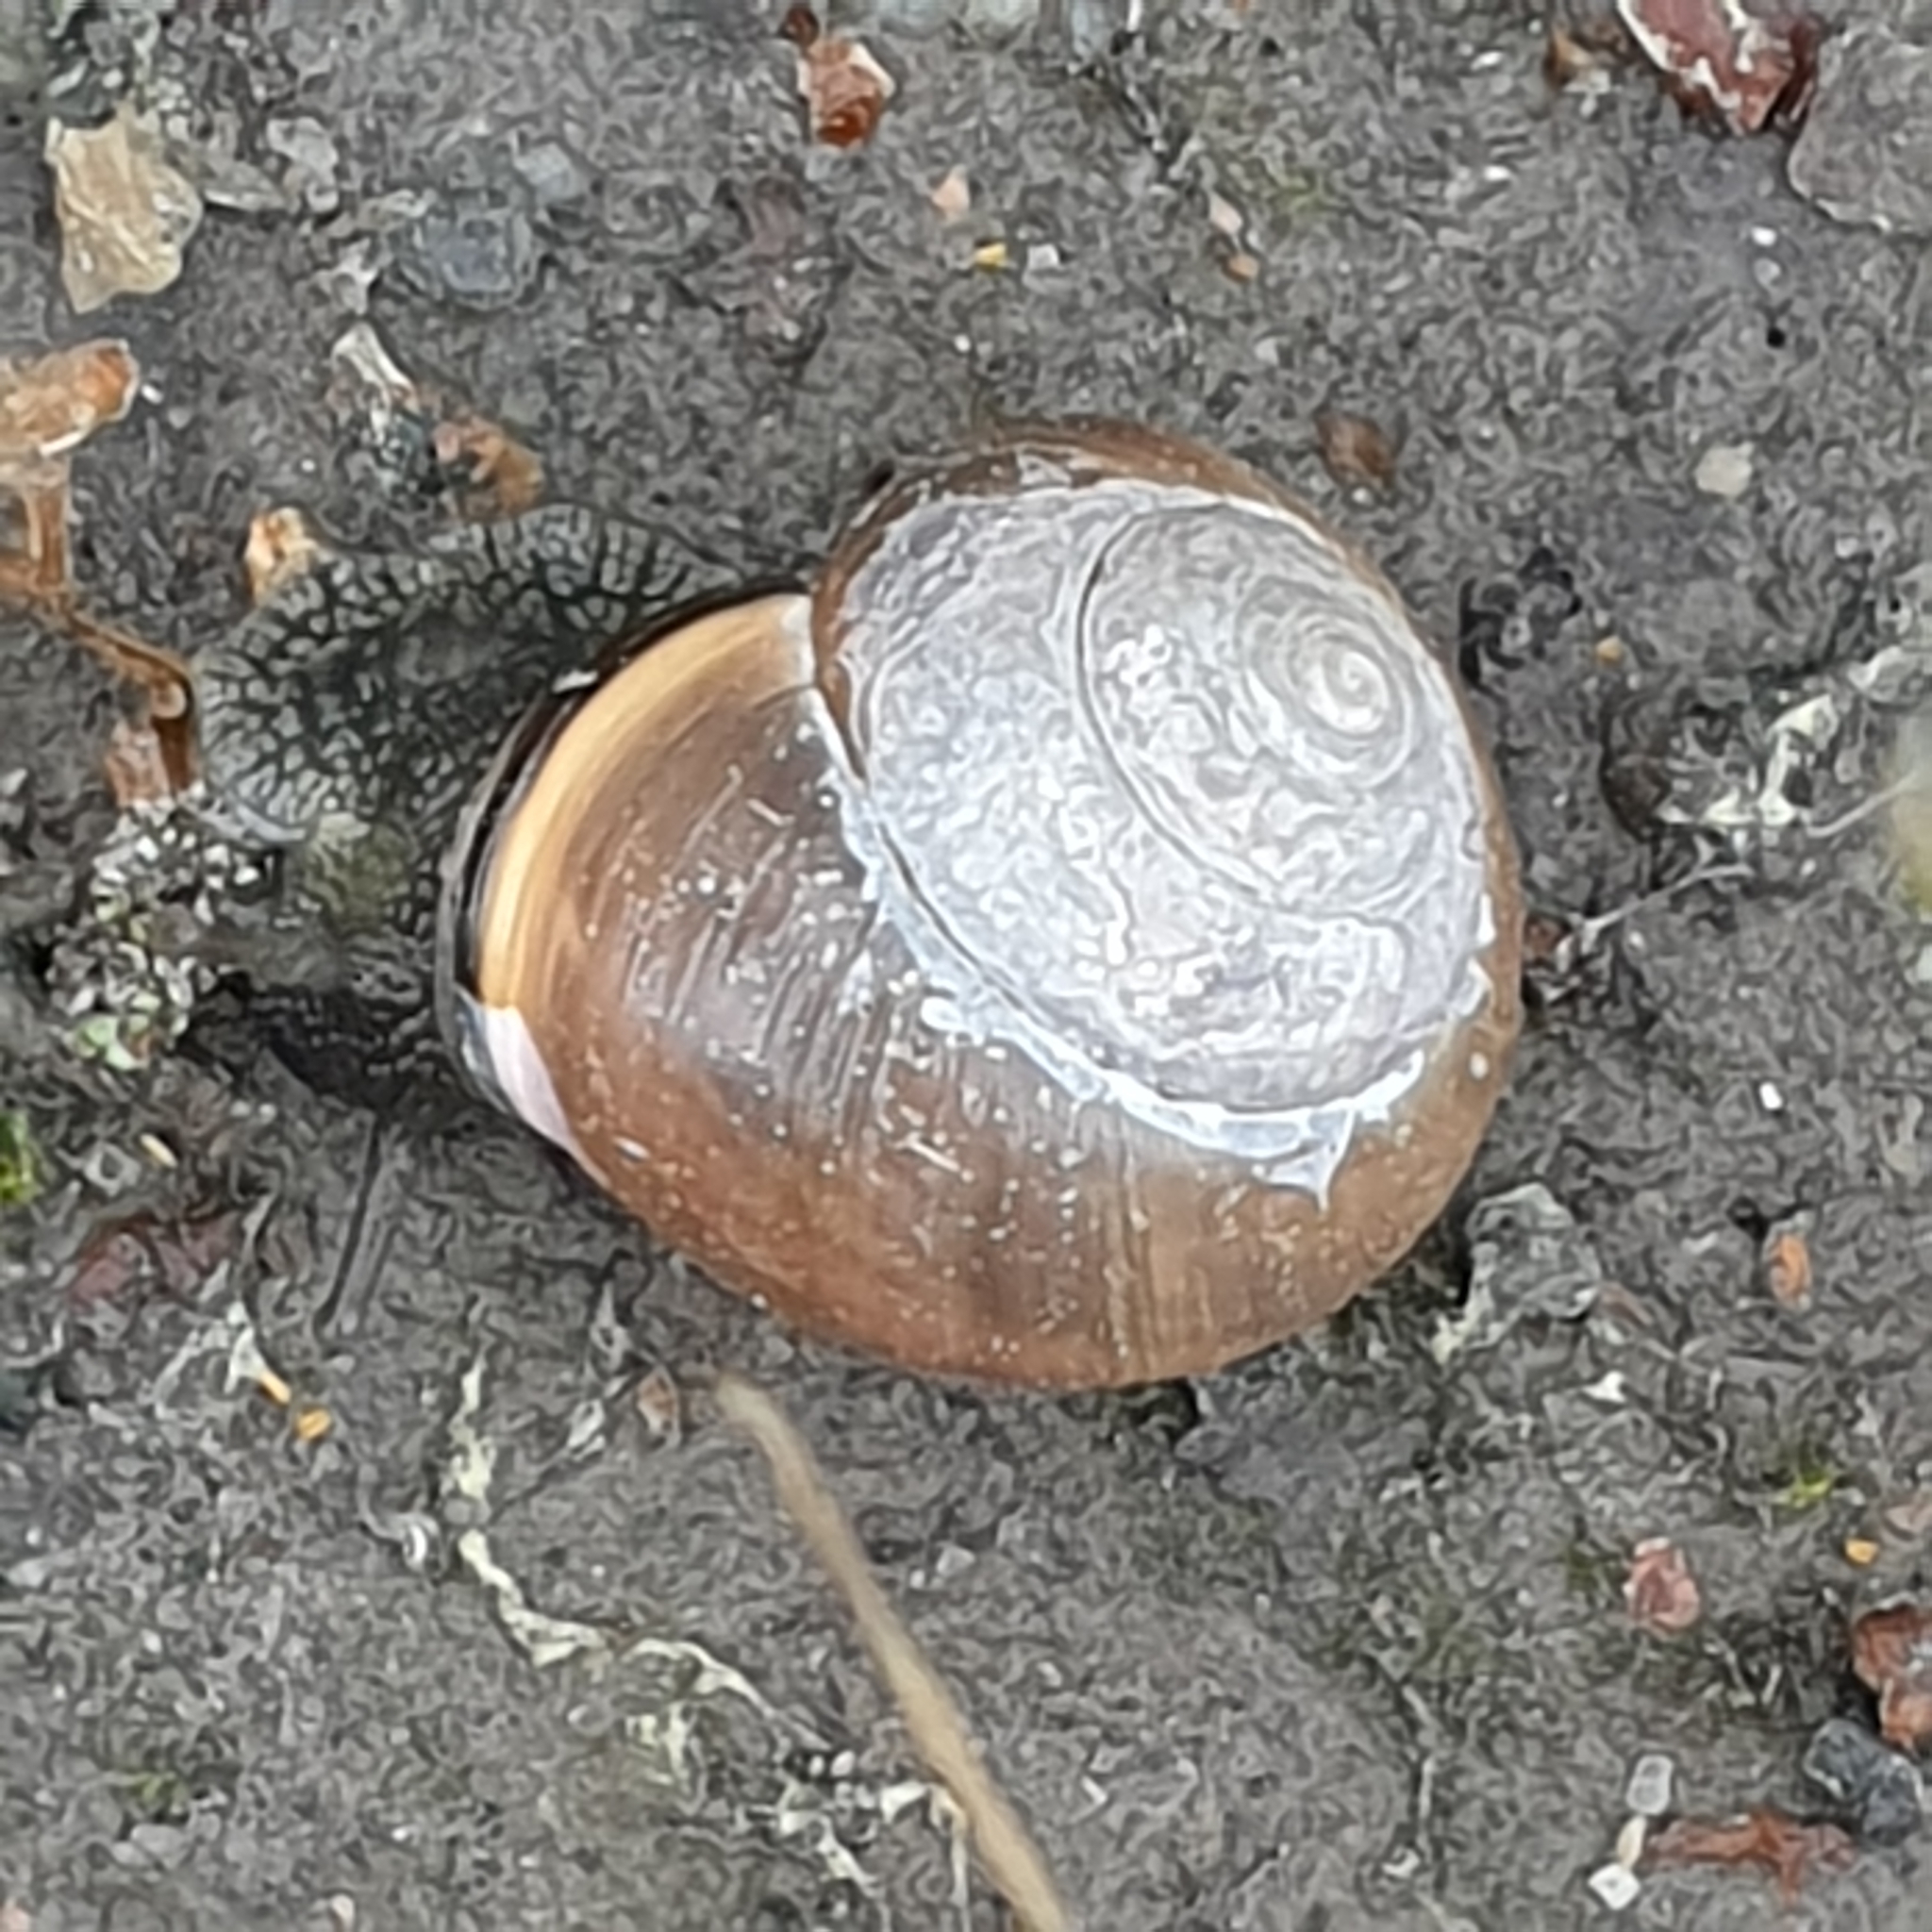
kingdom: Animalia
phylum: Mollusca
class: Gastropoda
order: Stylommatophora
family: Helicidae
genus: Cepaea
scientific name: Cepaea nemoralis
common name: Grovesnail
